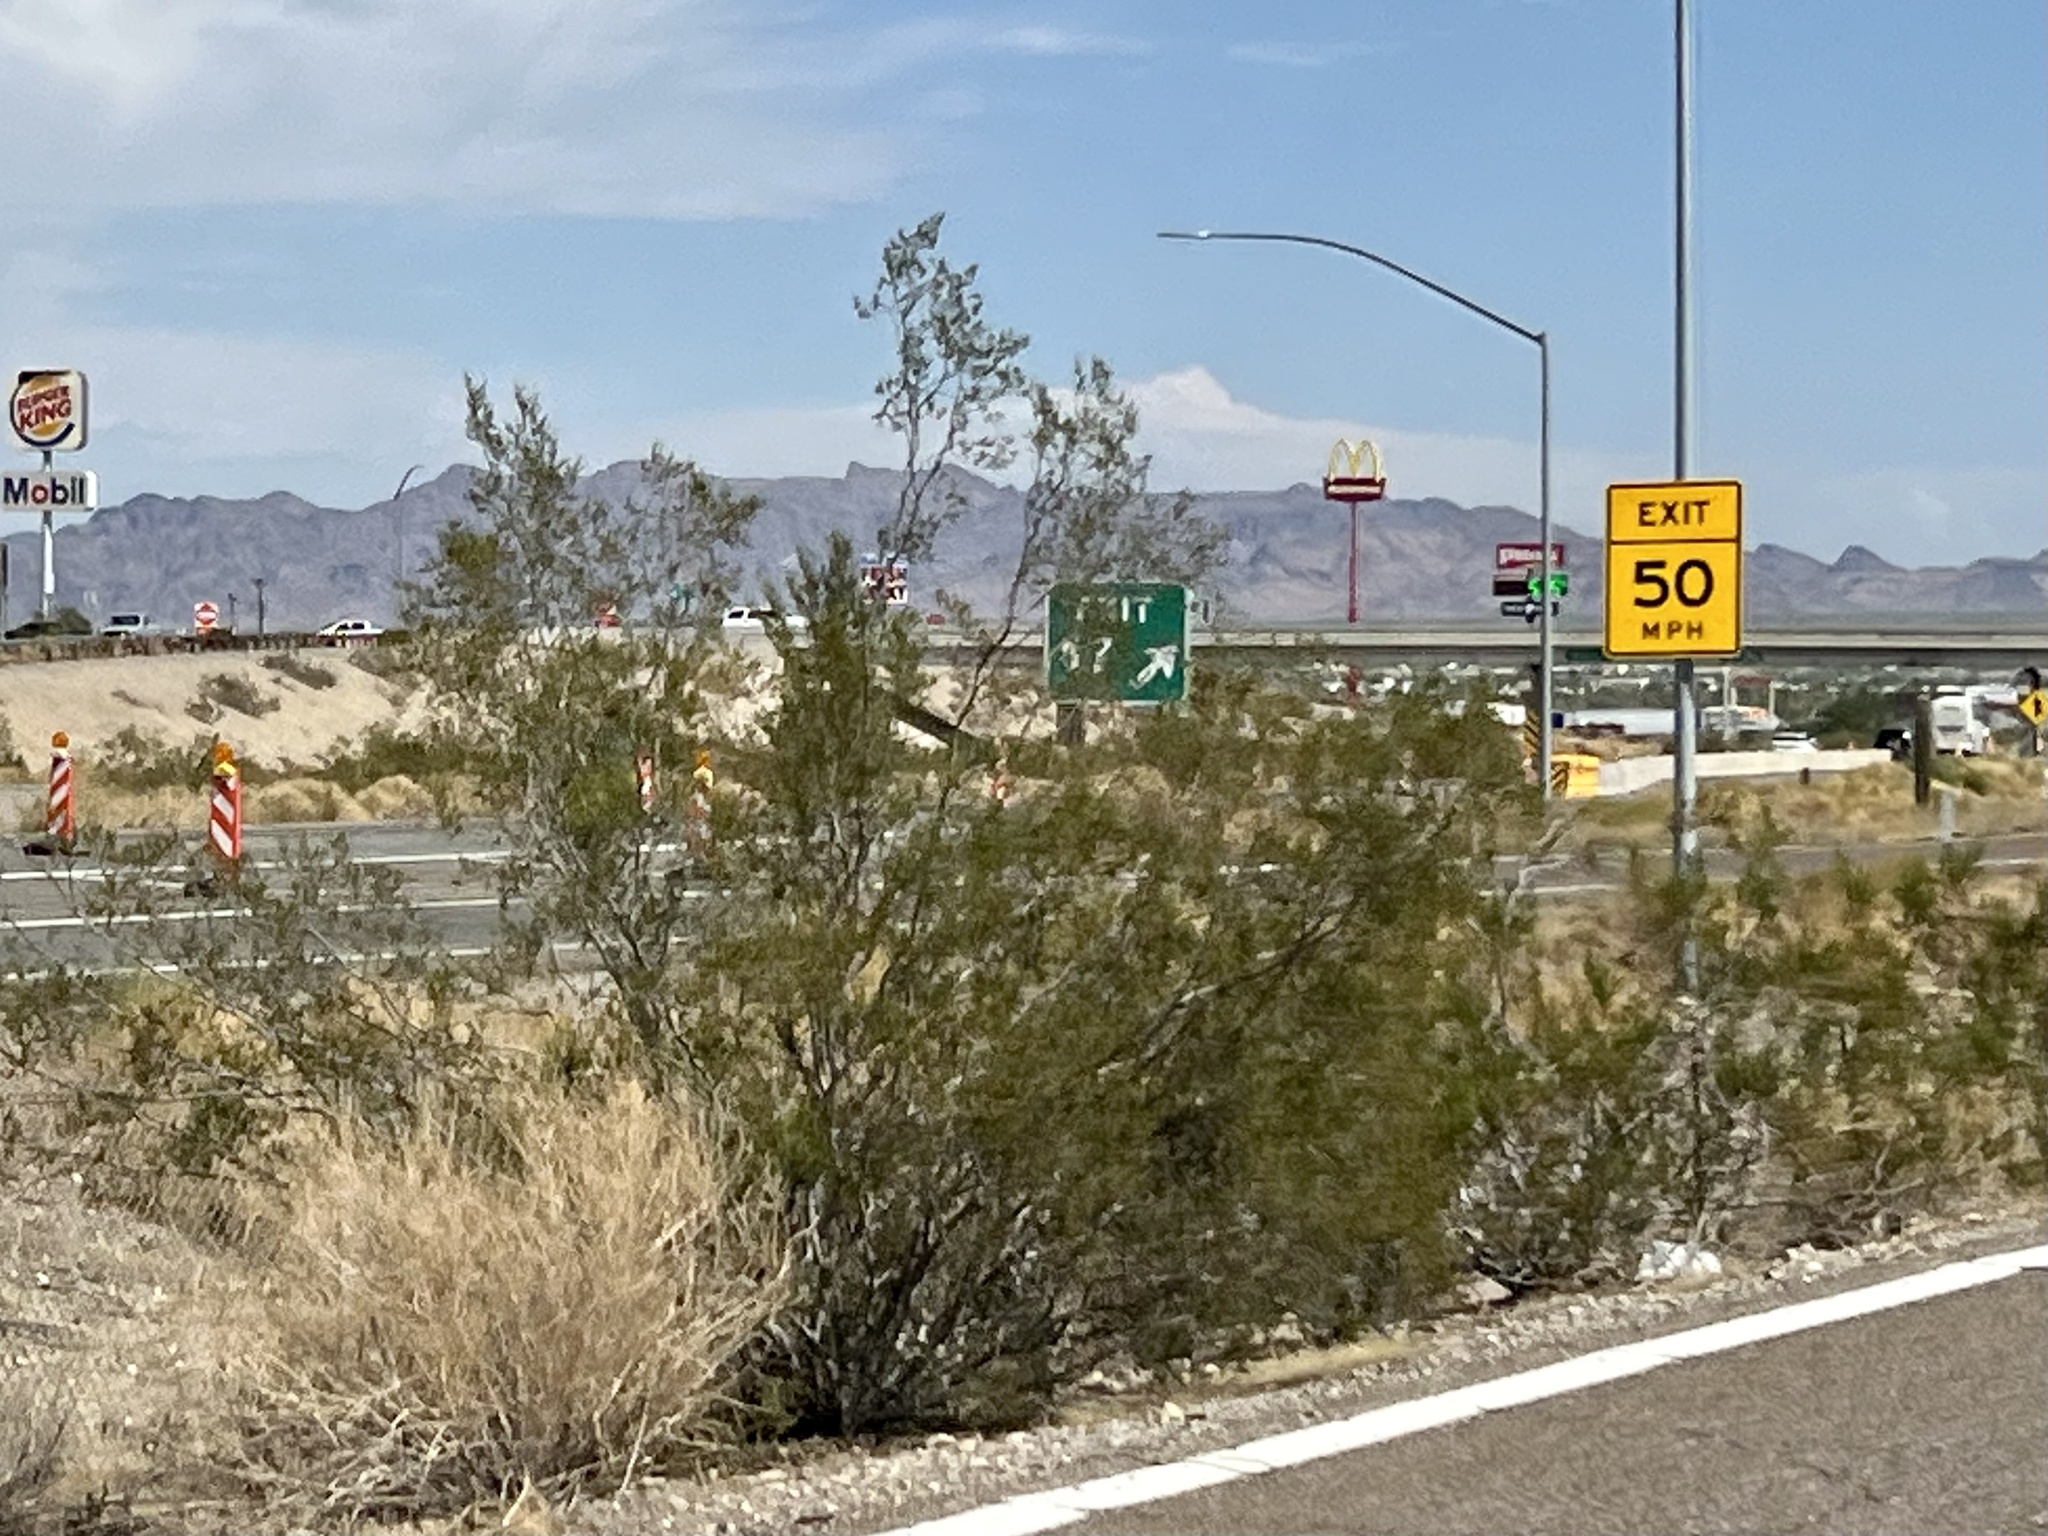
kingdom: Plantae
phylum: Tracheophyta
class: Magnoliopsida
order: Zygophyllales
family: Zygophyllaceae
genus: Larrea
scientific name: Larrea tridentata
